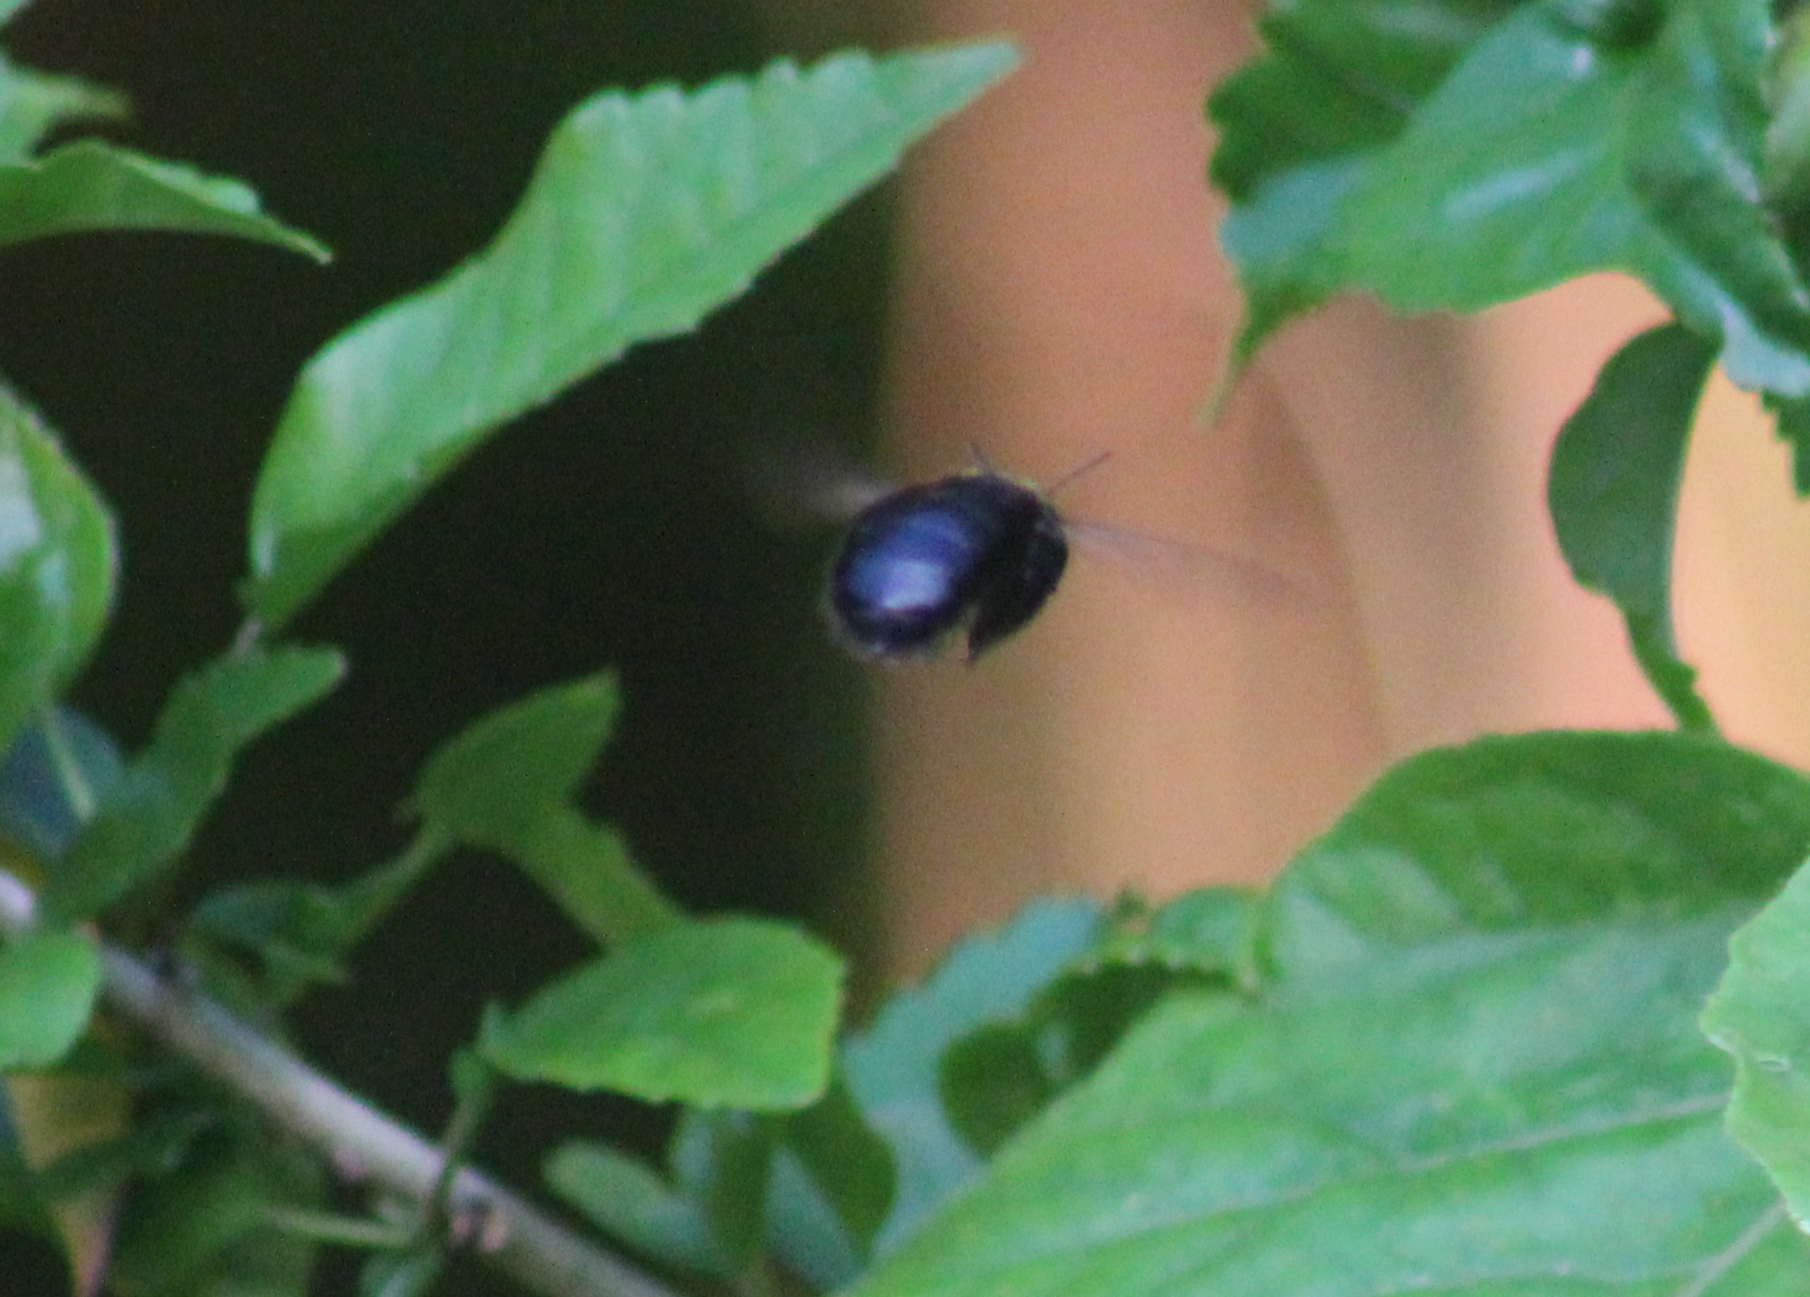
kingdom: Animalia
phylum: Arthropoda
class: Insecta
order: Hymenoptera
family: Apidae
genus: Xylocopa
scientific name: Xylocopa sonorina
